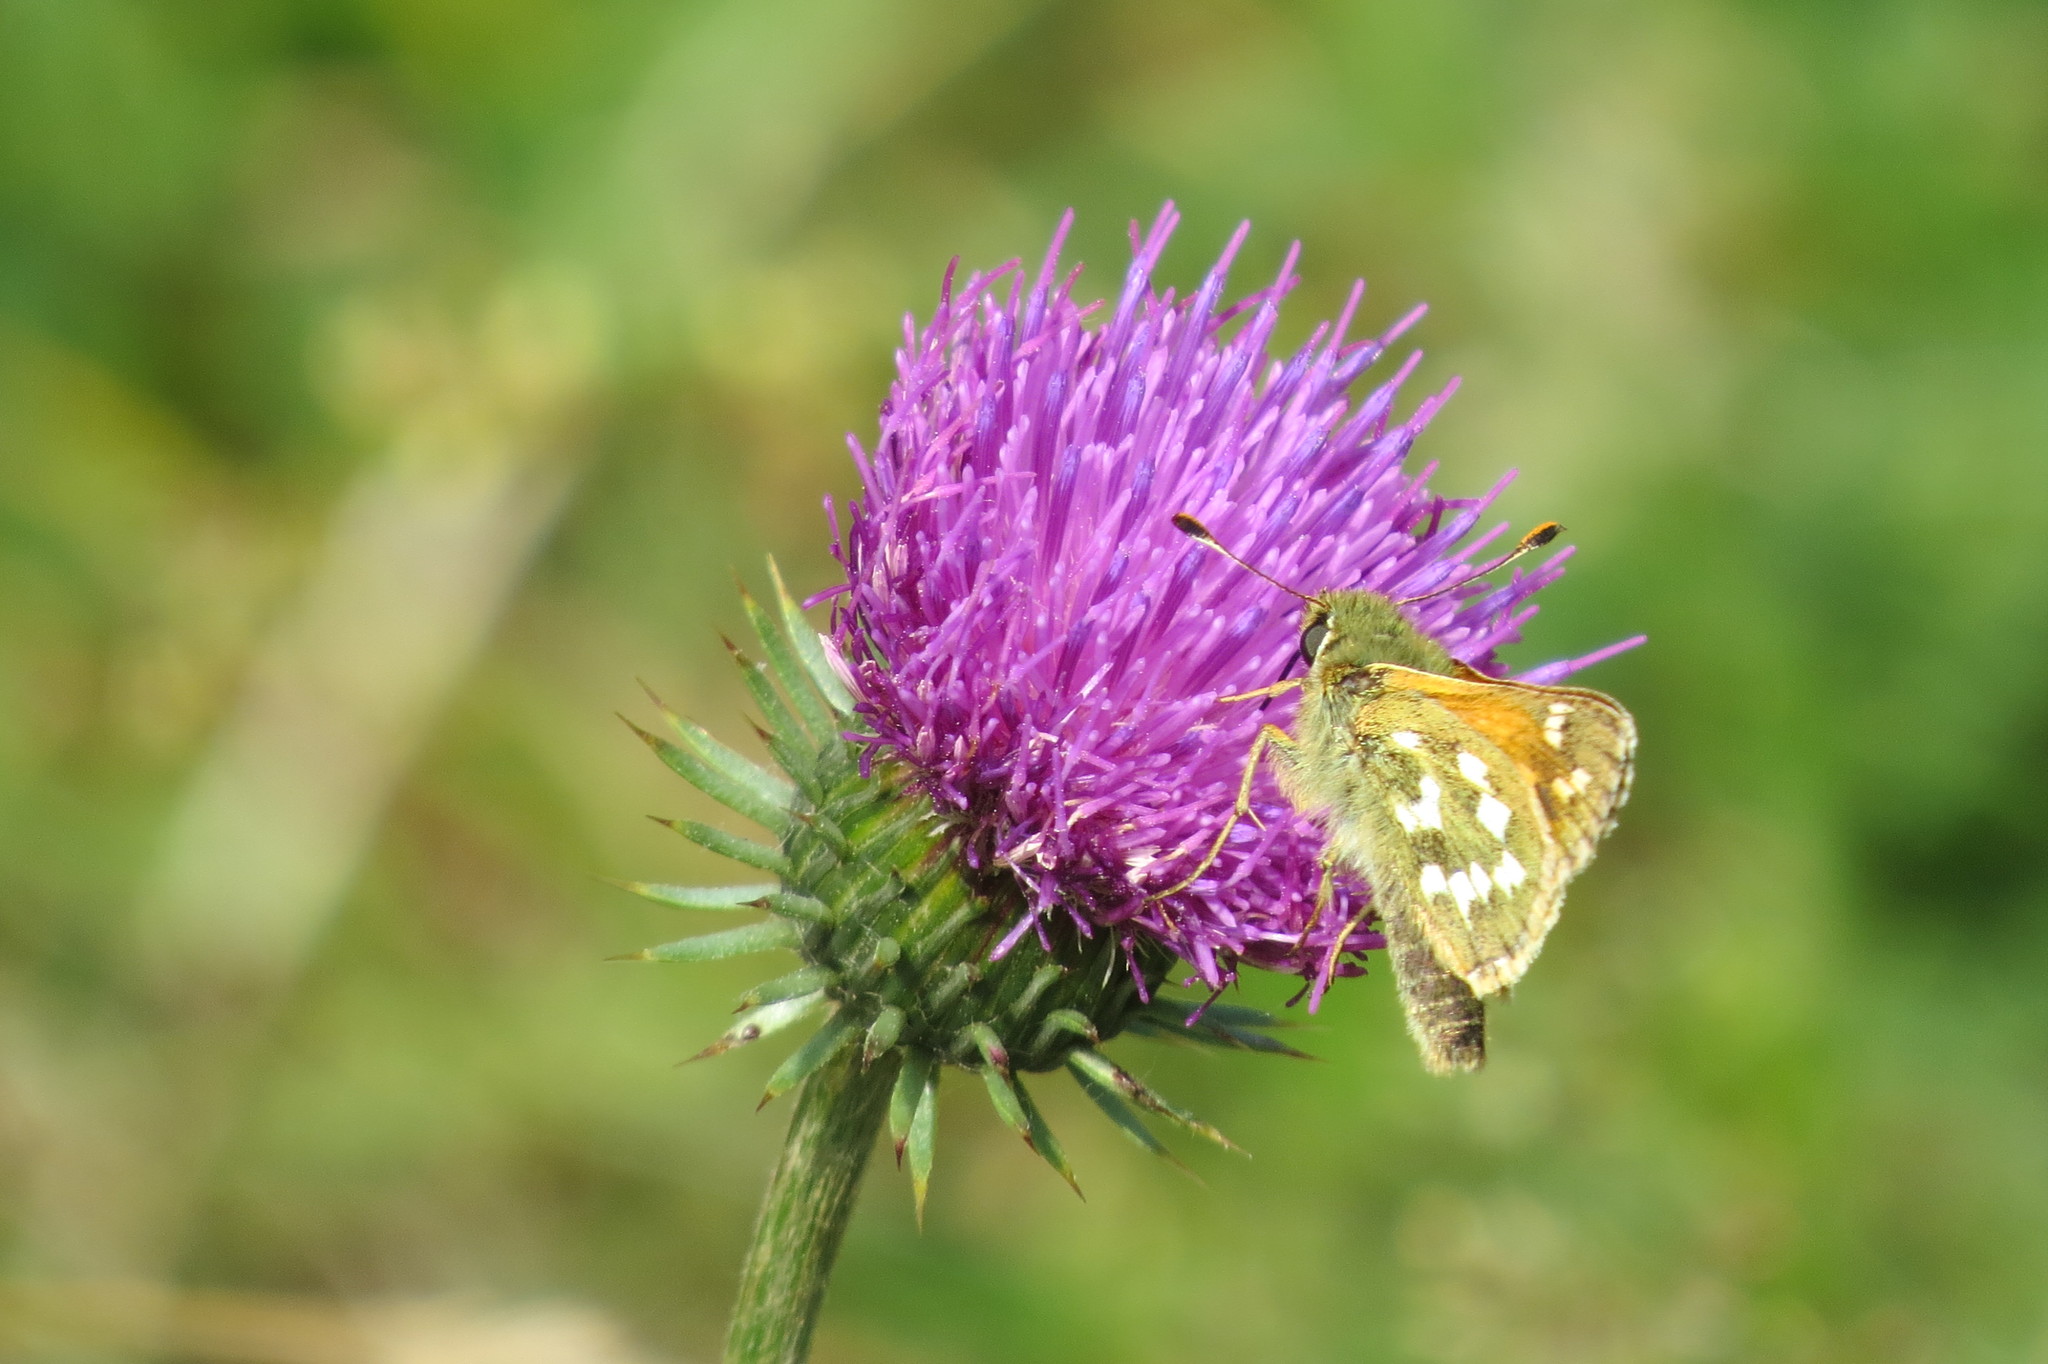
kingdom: Animalia
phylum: Arthropoda
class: Insecta
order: Lepidoptera
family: Hesperiidae
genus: Hesperia
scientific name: Hesperia comma
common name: Common branded skipper
